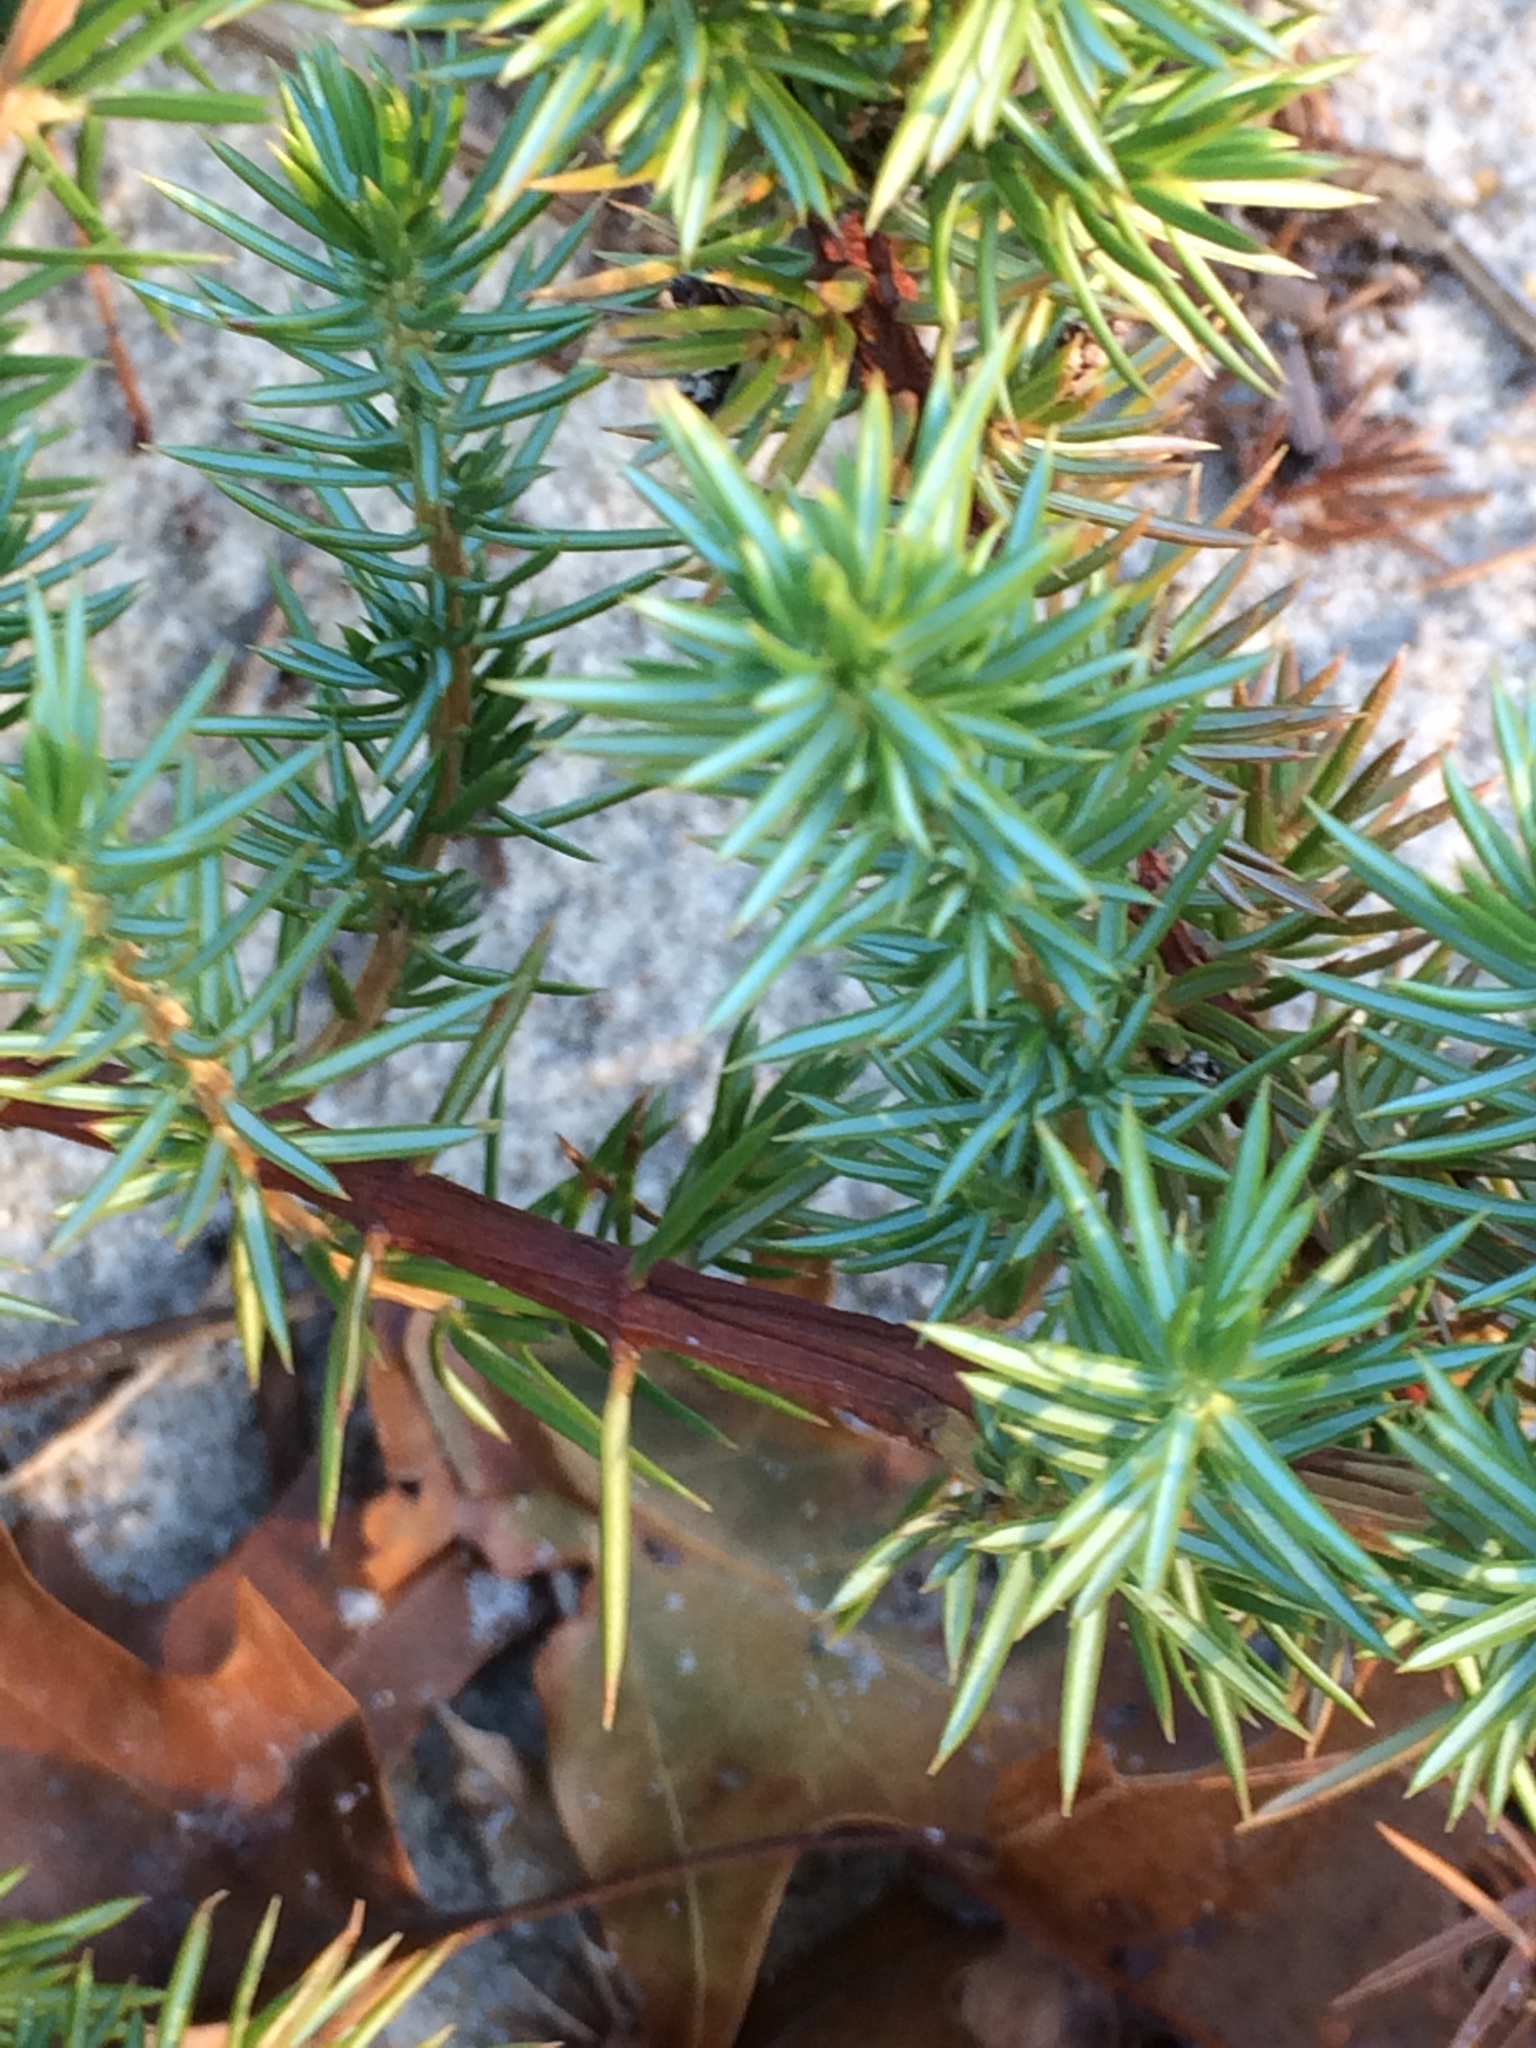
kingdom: Plantae
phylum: Tracheophyta
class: Pinopsida
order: Pinales
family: Cupressaceae
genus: Juniperus
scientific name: Juniperus communis
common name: Common juniper
